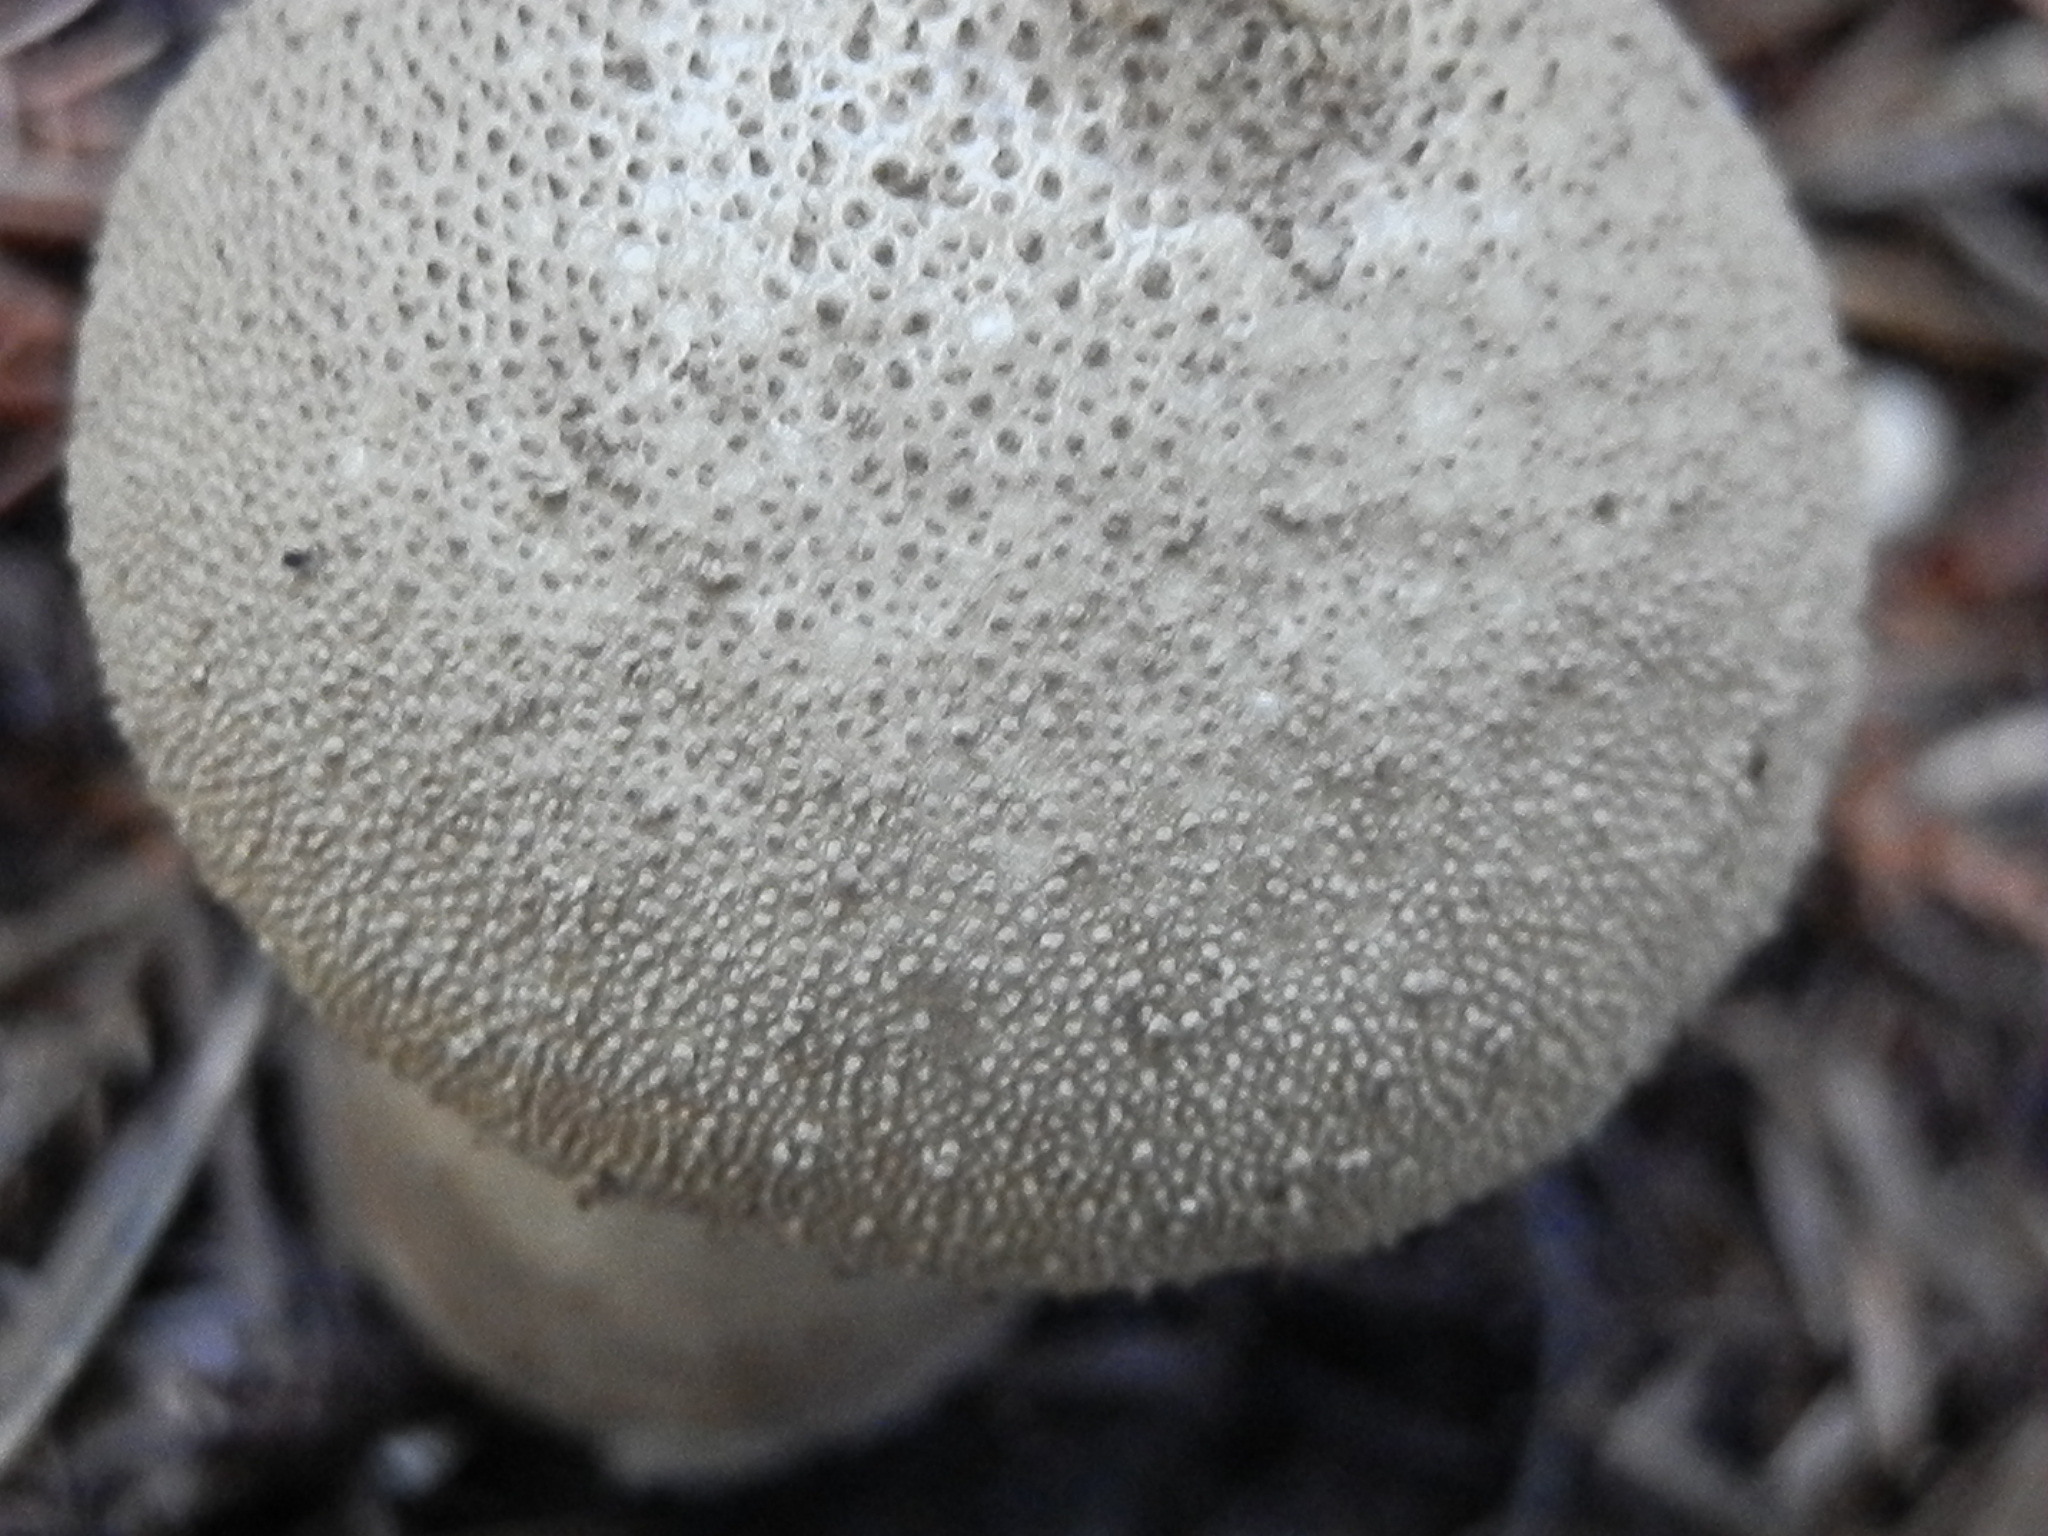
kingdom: Fungi
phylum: Basidiomycota
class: Agaricomycetes
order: Agaricales
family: Lycoperdaceae
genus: Lycoperdon
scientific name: Lycoperdon perlatum
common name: Common puffball
